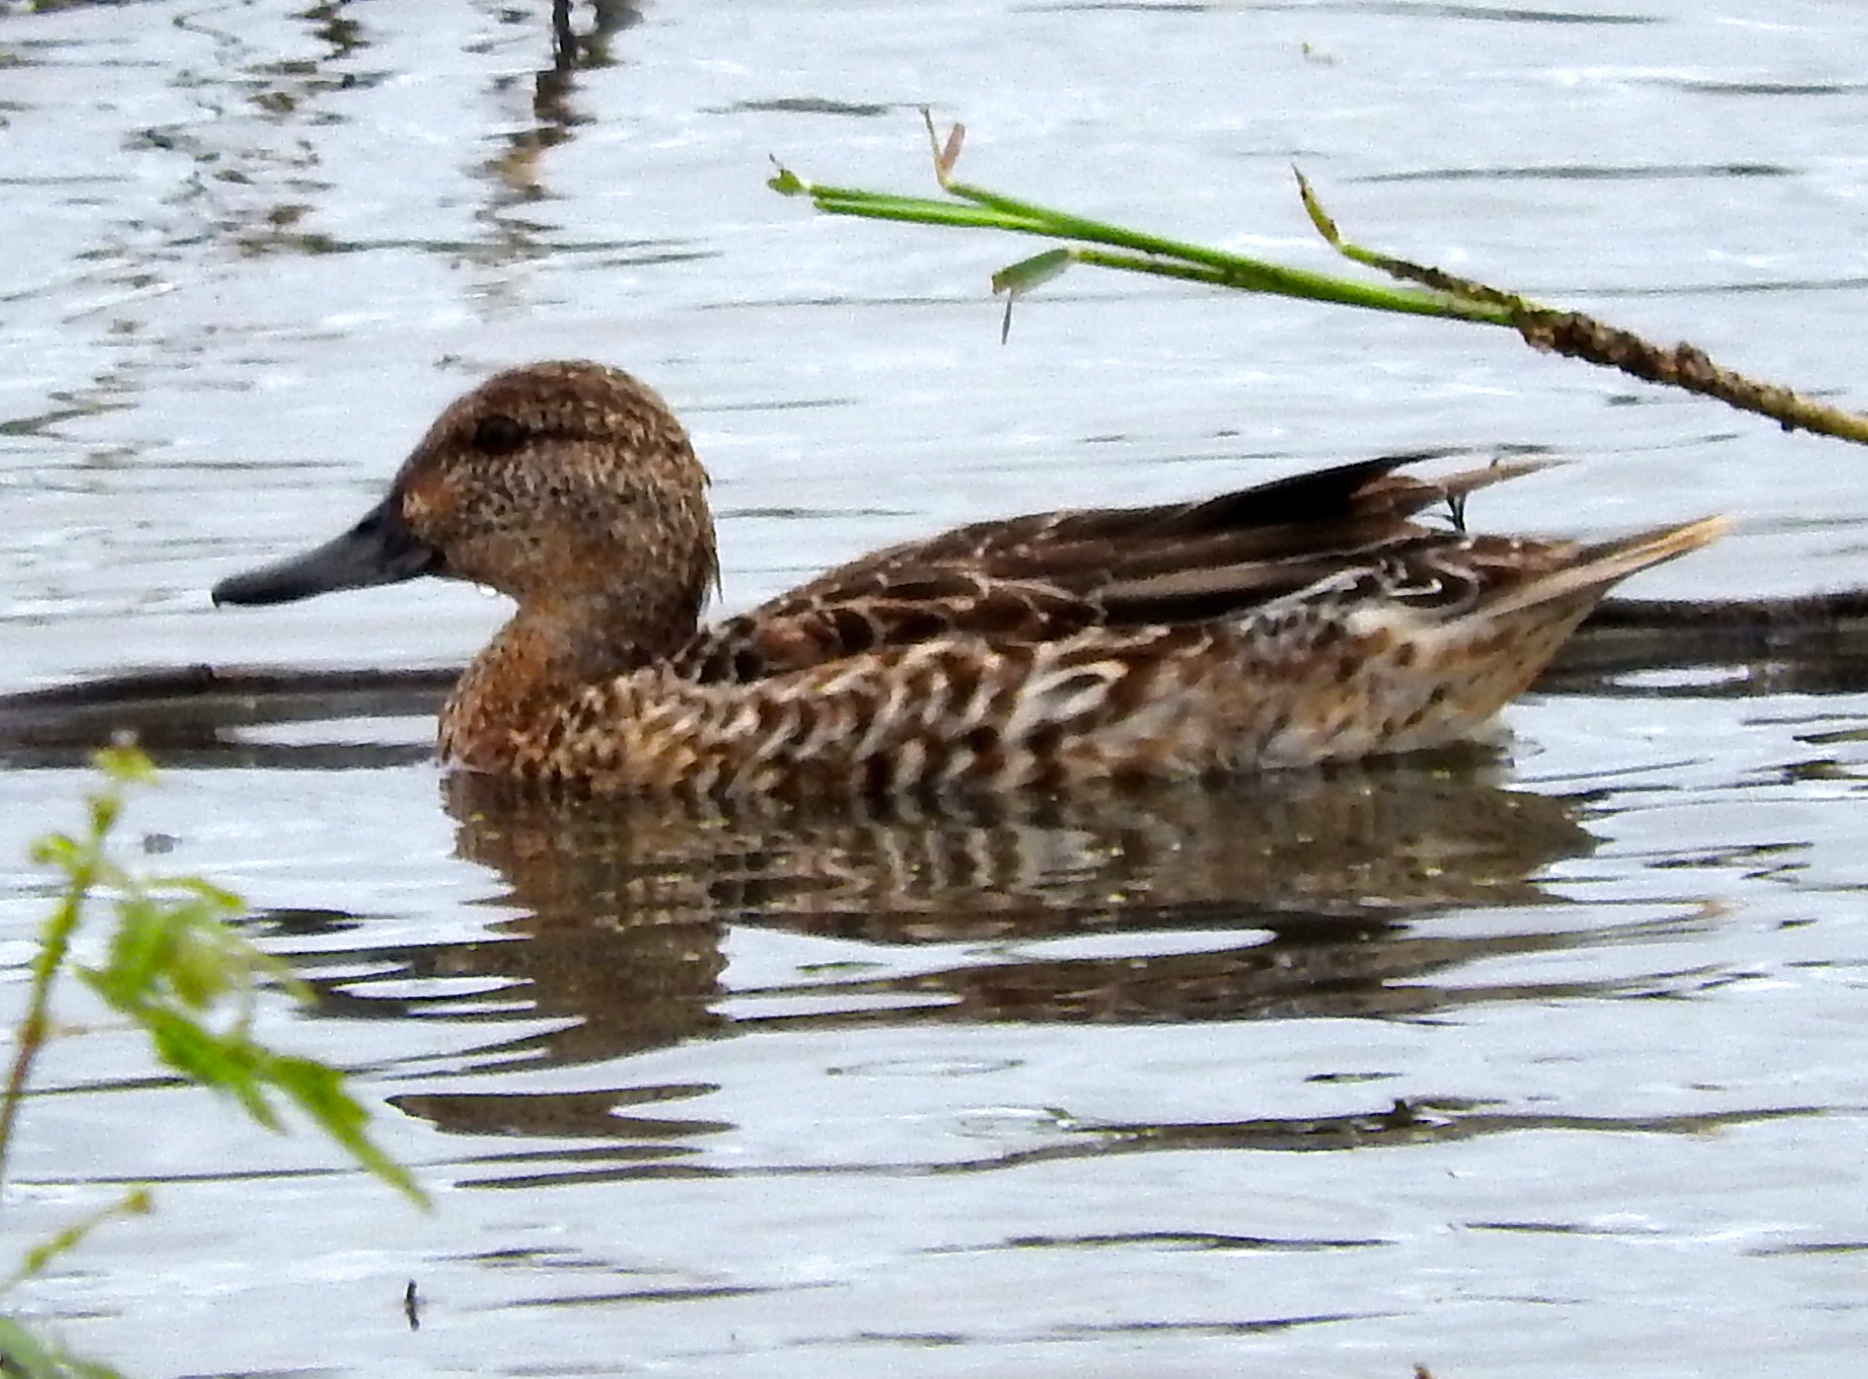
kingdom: Animalia
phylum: Chordata
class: Aves
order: Anseriformes
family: Anatidae
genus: Spatula
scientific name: Spatula cyanoptera
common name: Cinnamon teal
